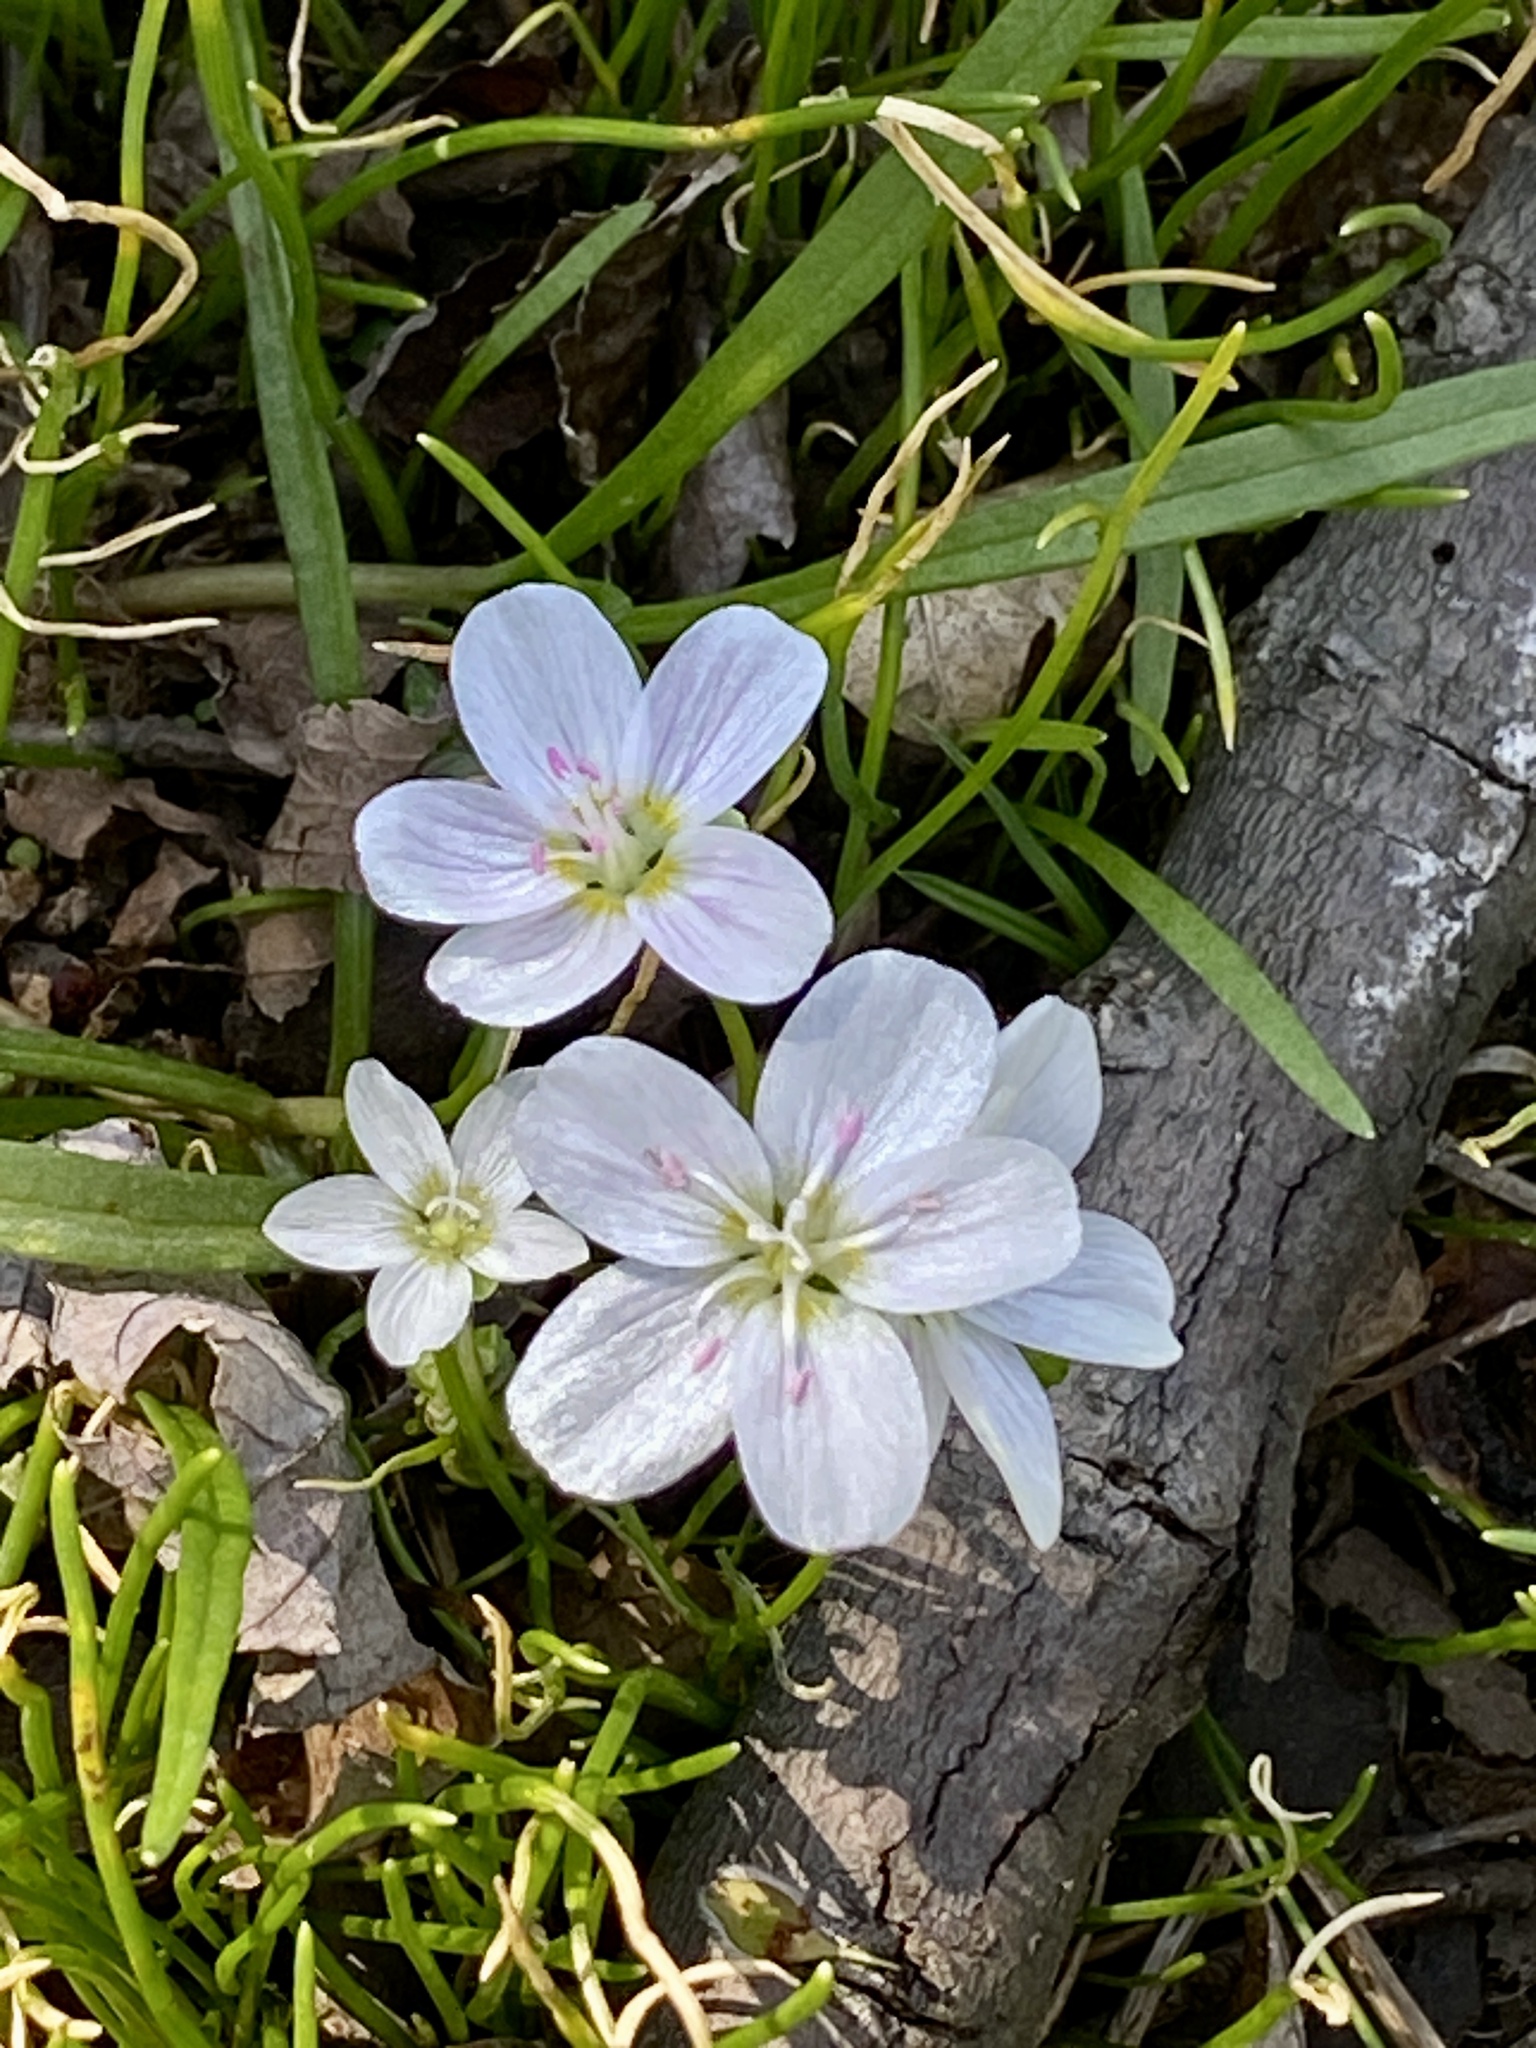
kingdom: Plantae
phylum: Tracheophyta
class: Magnoliopsida
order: Caryophyllales
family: Montiaceae
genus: Claytonia
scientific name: Claytonia virginica
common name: Virginia springbeauty
